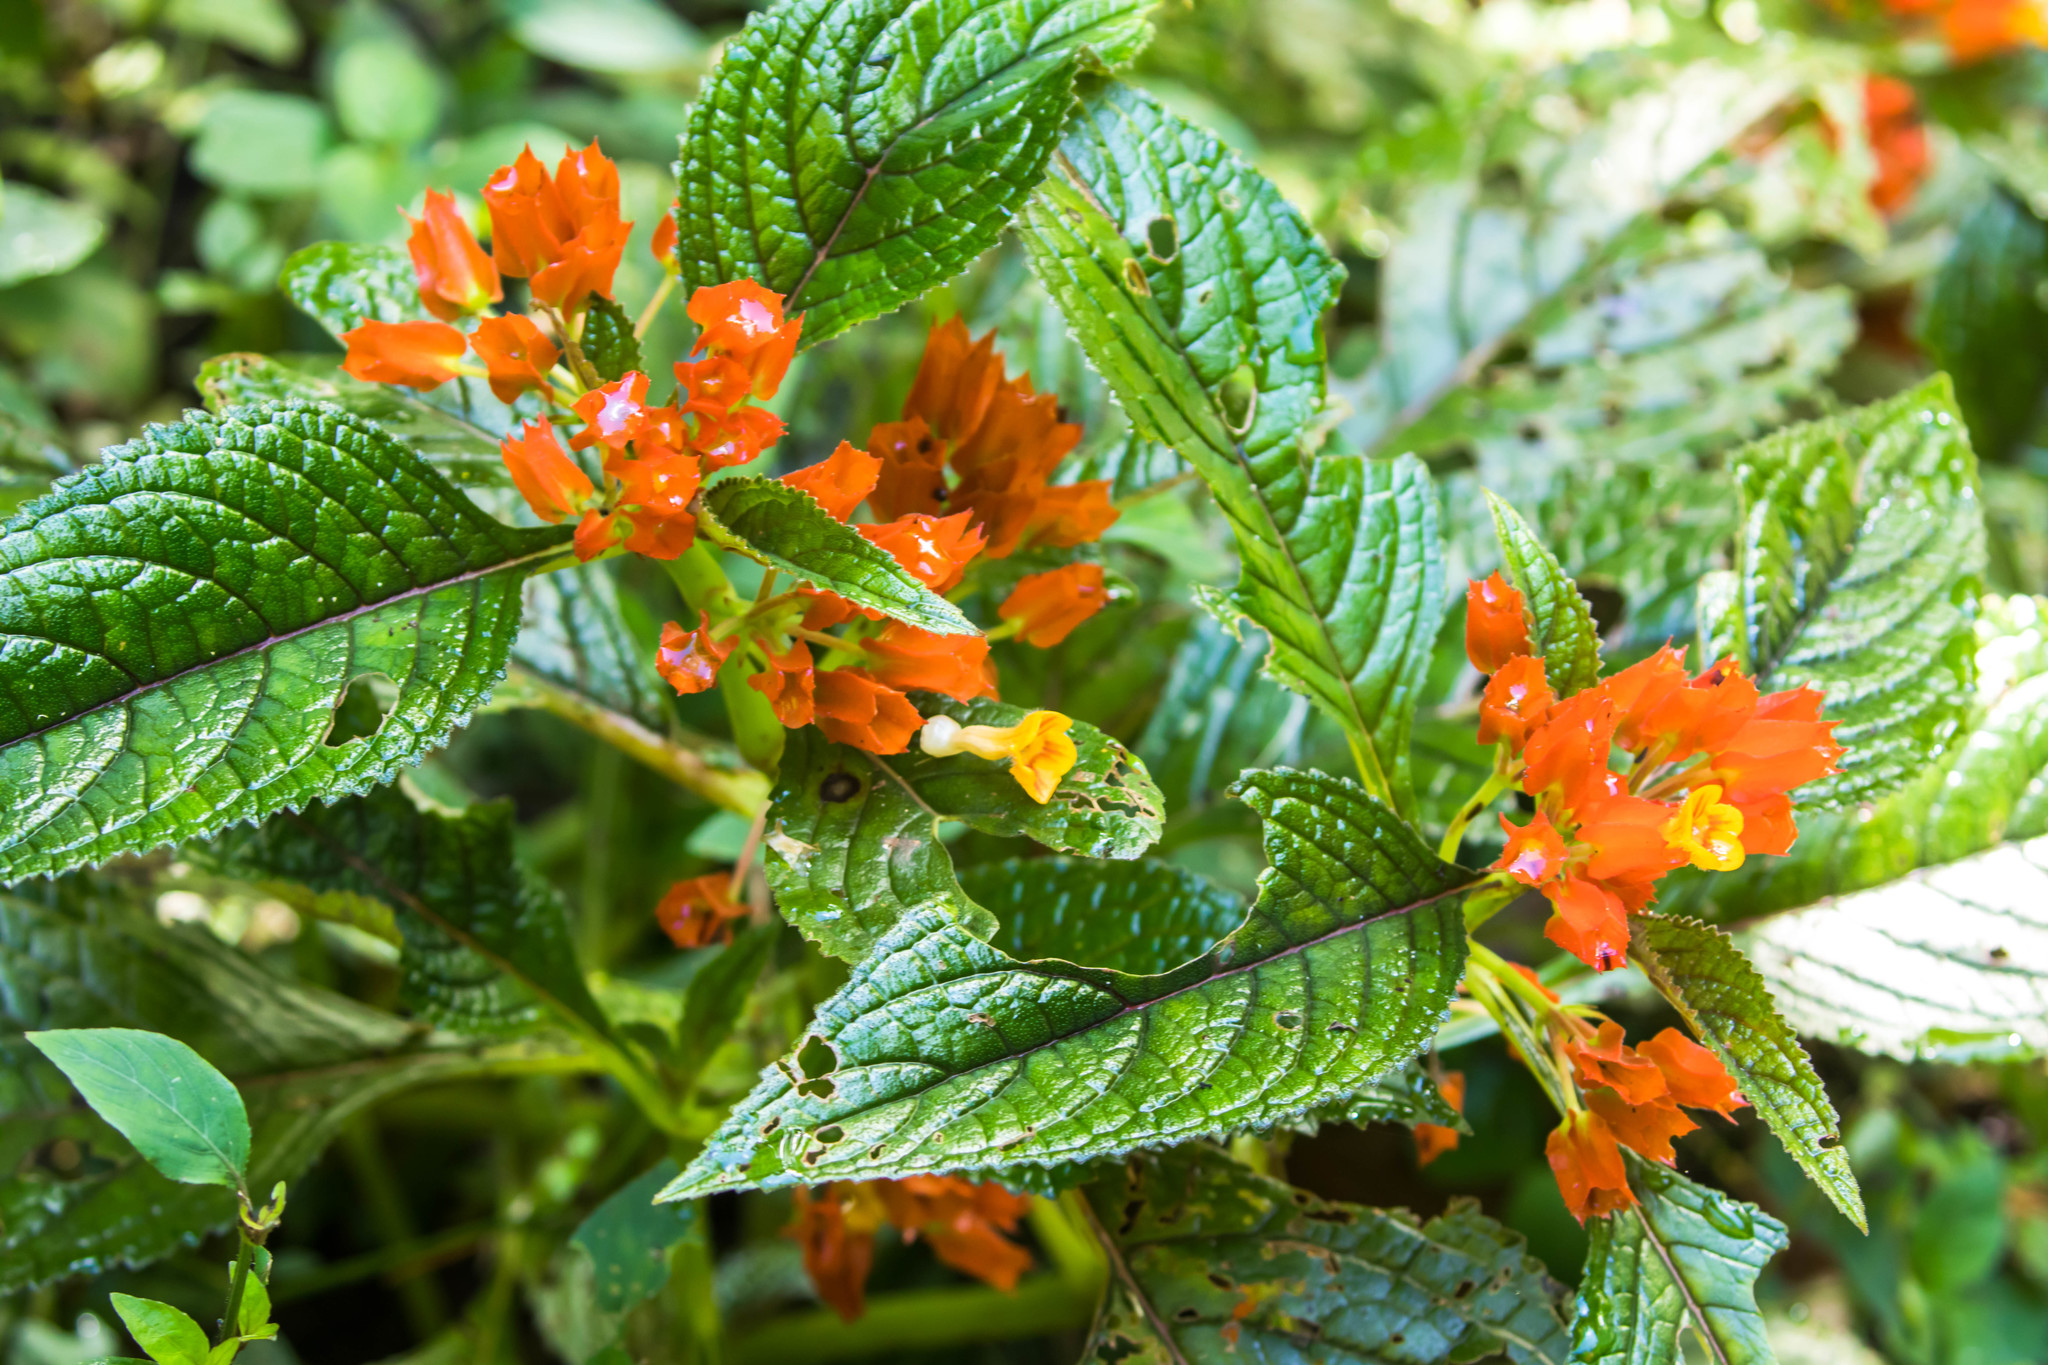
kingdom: Plantae
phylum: Tracheophyta
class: Magnoliopsida
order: Lamiales
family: Gesneriaceae
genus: Chrysothemis
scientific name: Chrysothemis pulchella
